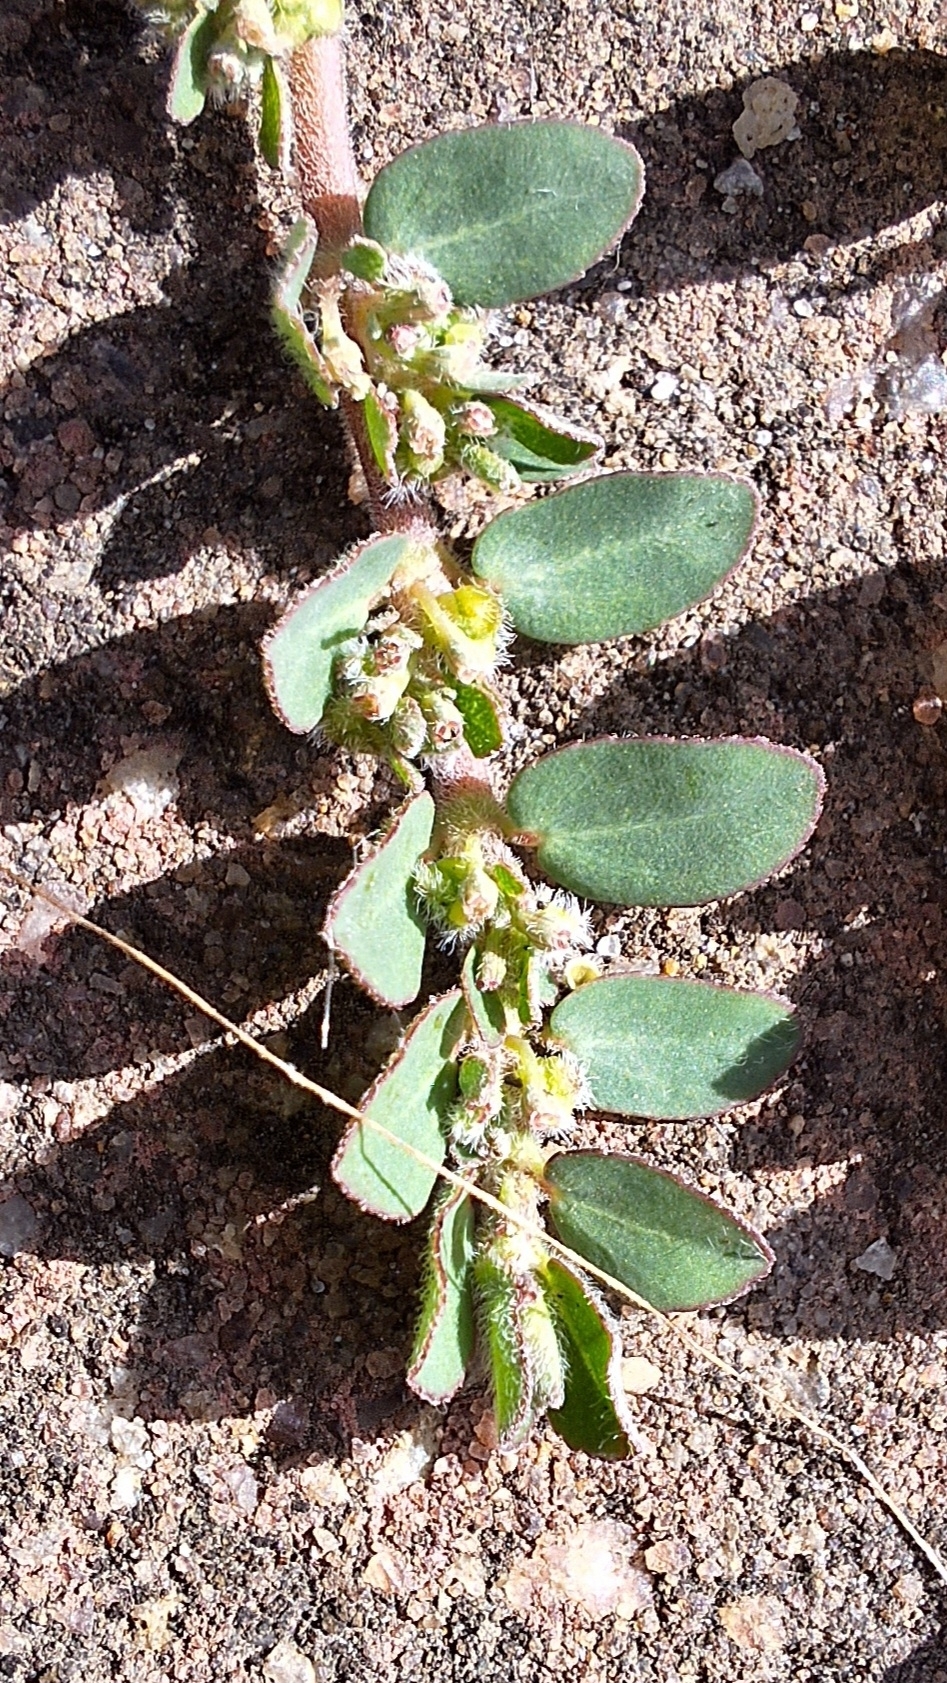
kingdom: Plantae
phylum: Tracheophyta
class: Magnoliopsida
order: Malpighiales
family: Euphorbiaceae
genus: Euphorbia
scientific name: Euphorbia prostrata
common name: Prostrate sandmat
